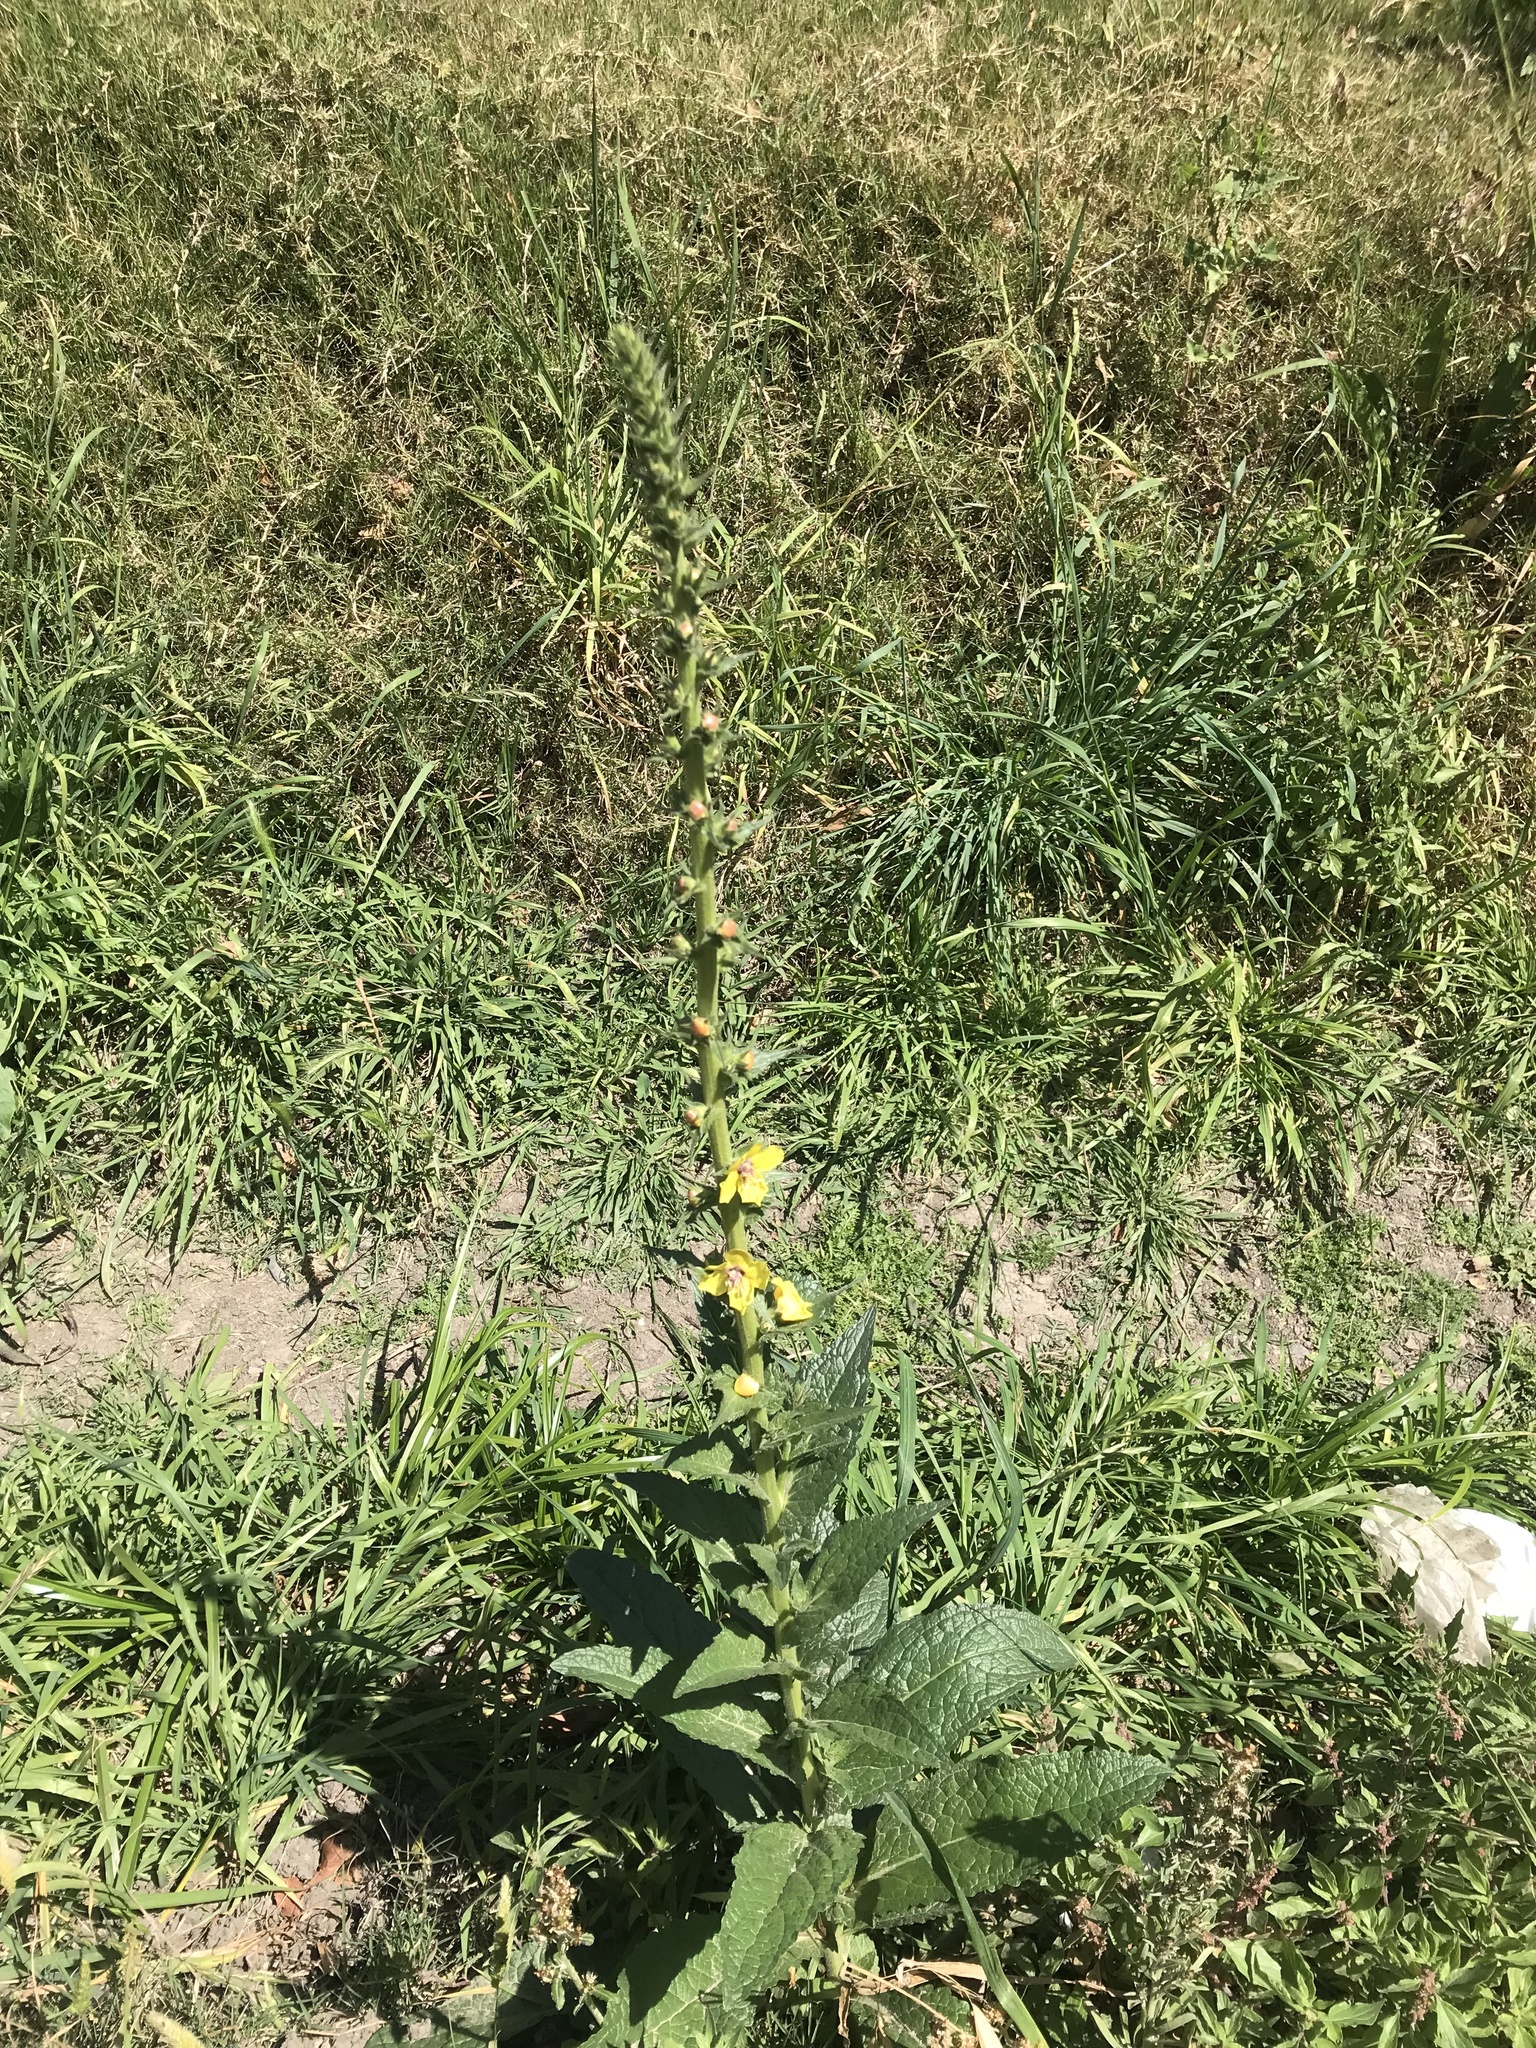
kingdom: Plantae
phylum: Tracheophyta
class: Magnoliopsida
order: Lamiales
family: Scrophulariaceae
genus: Verbascum
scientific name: Verbascum virgatum
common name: Twiggy mullein
